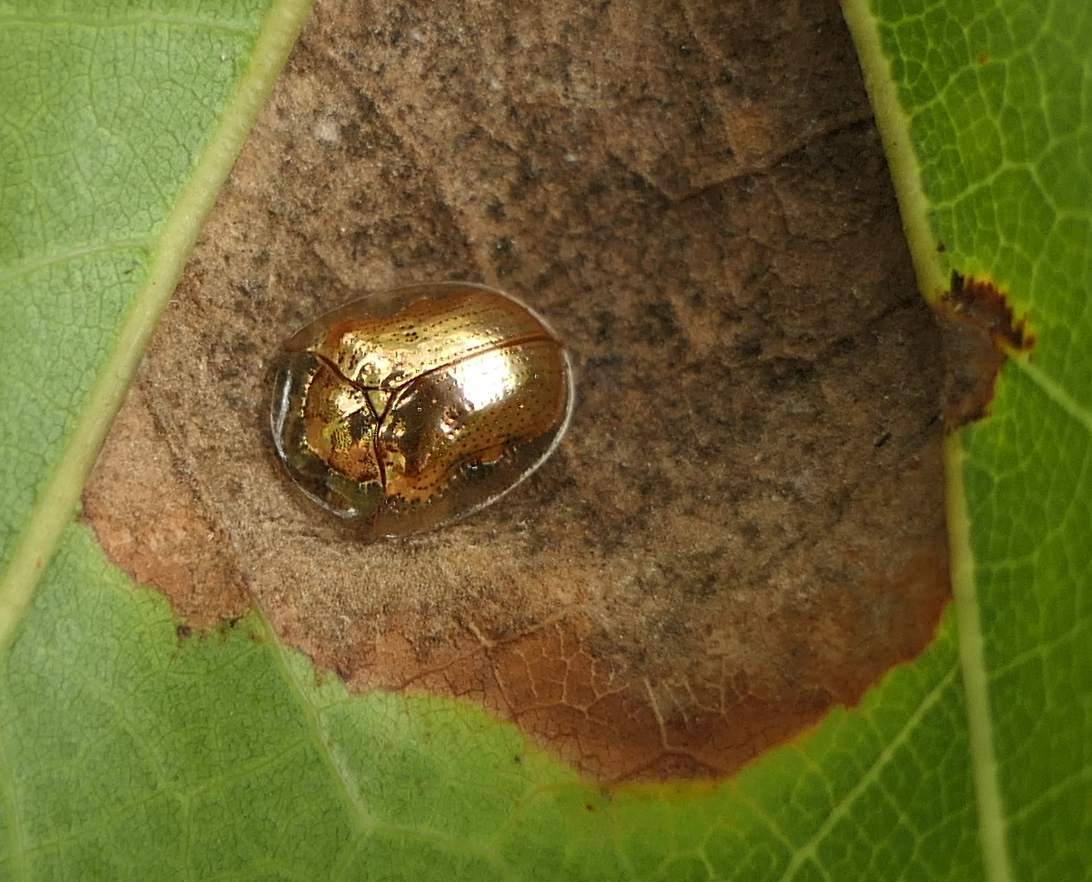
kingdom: Animalia
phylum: Arthropoda
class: Insecta
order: Coleoptera
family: Chrysomelidae
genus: Charidotella
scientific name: Charidotella sexpunctata
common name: Golden tortoise beetle
